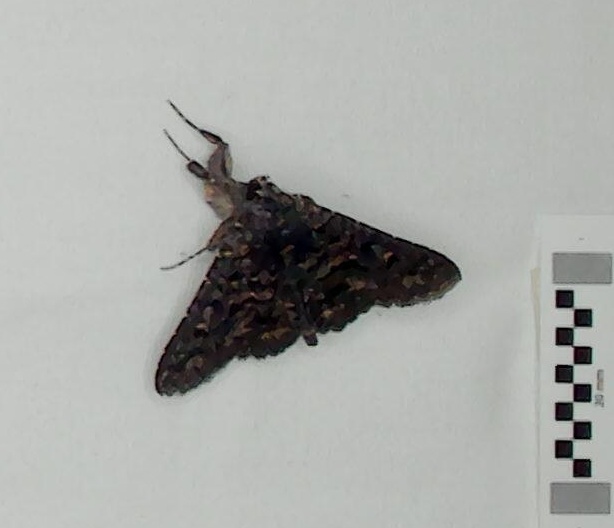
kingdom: Animalia
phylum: Arthropoda
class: Insecta
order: Lepidoptera
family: Erebidae
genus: Praxis
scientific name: Praxis edwardsii
